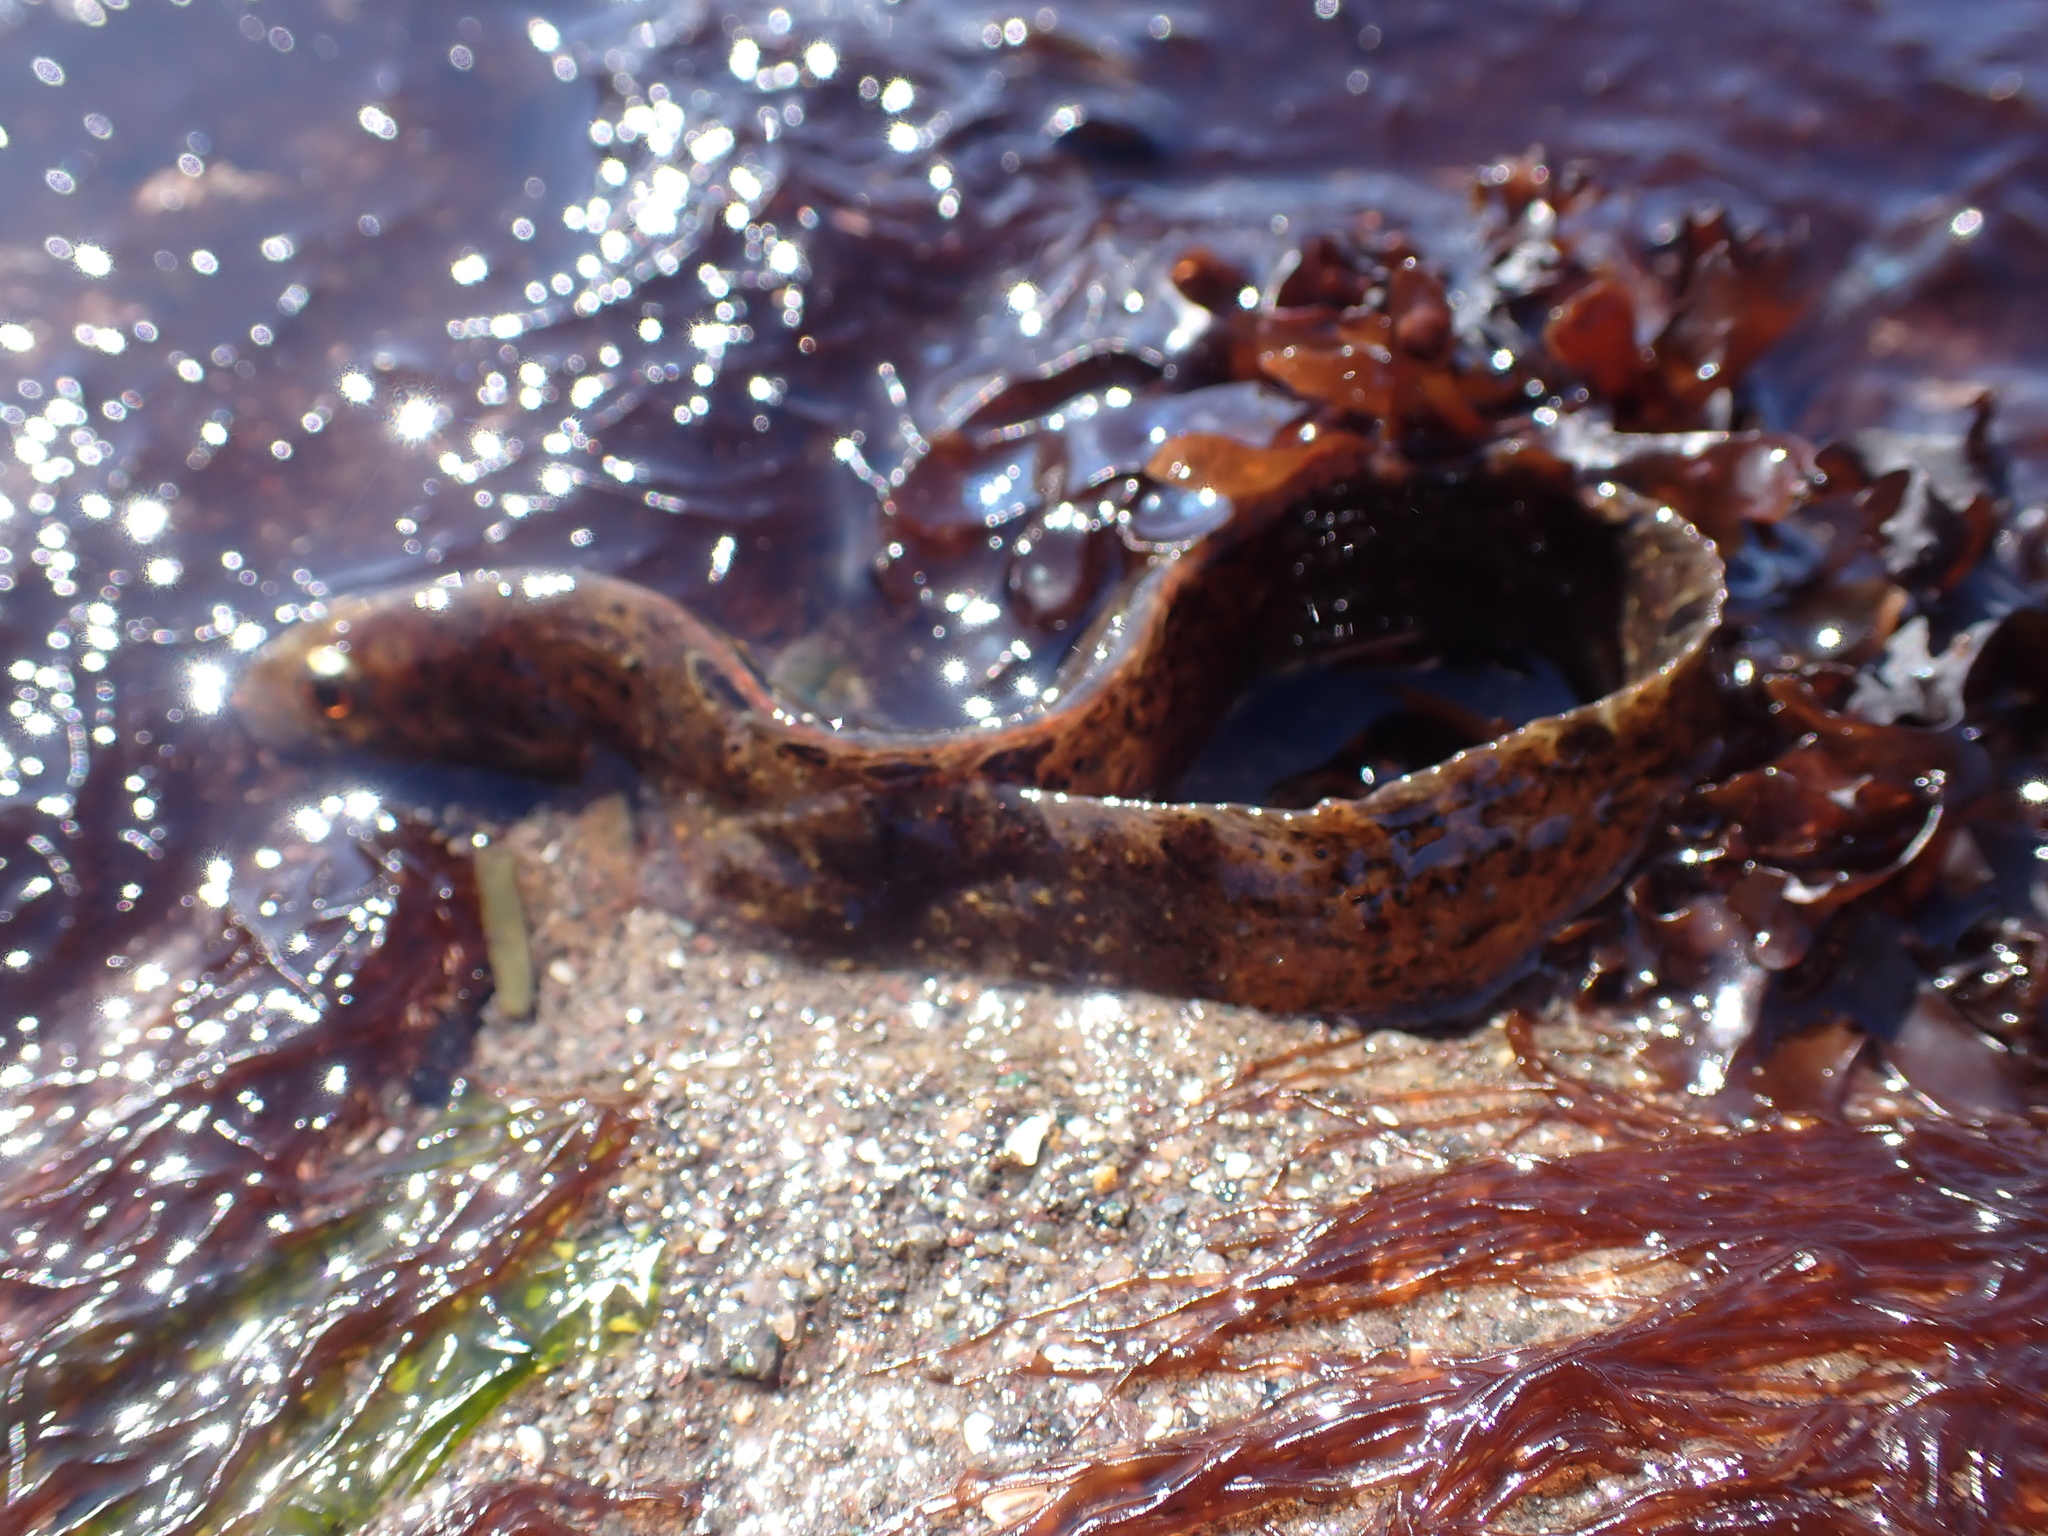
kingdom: Animalia
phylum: Chordata
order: Perciformes
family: Pholidae
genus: Pholis
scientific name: Pholis gunnellus
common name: Butterfish
